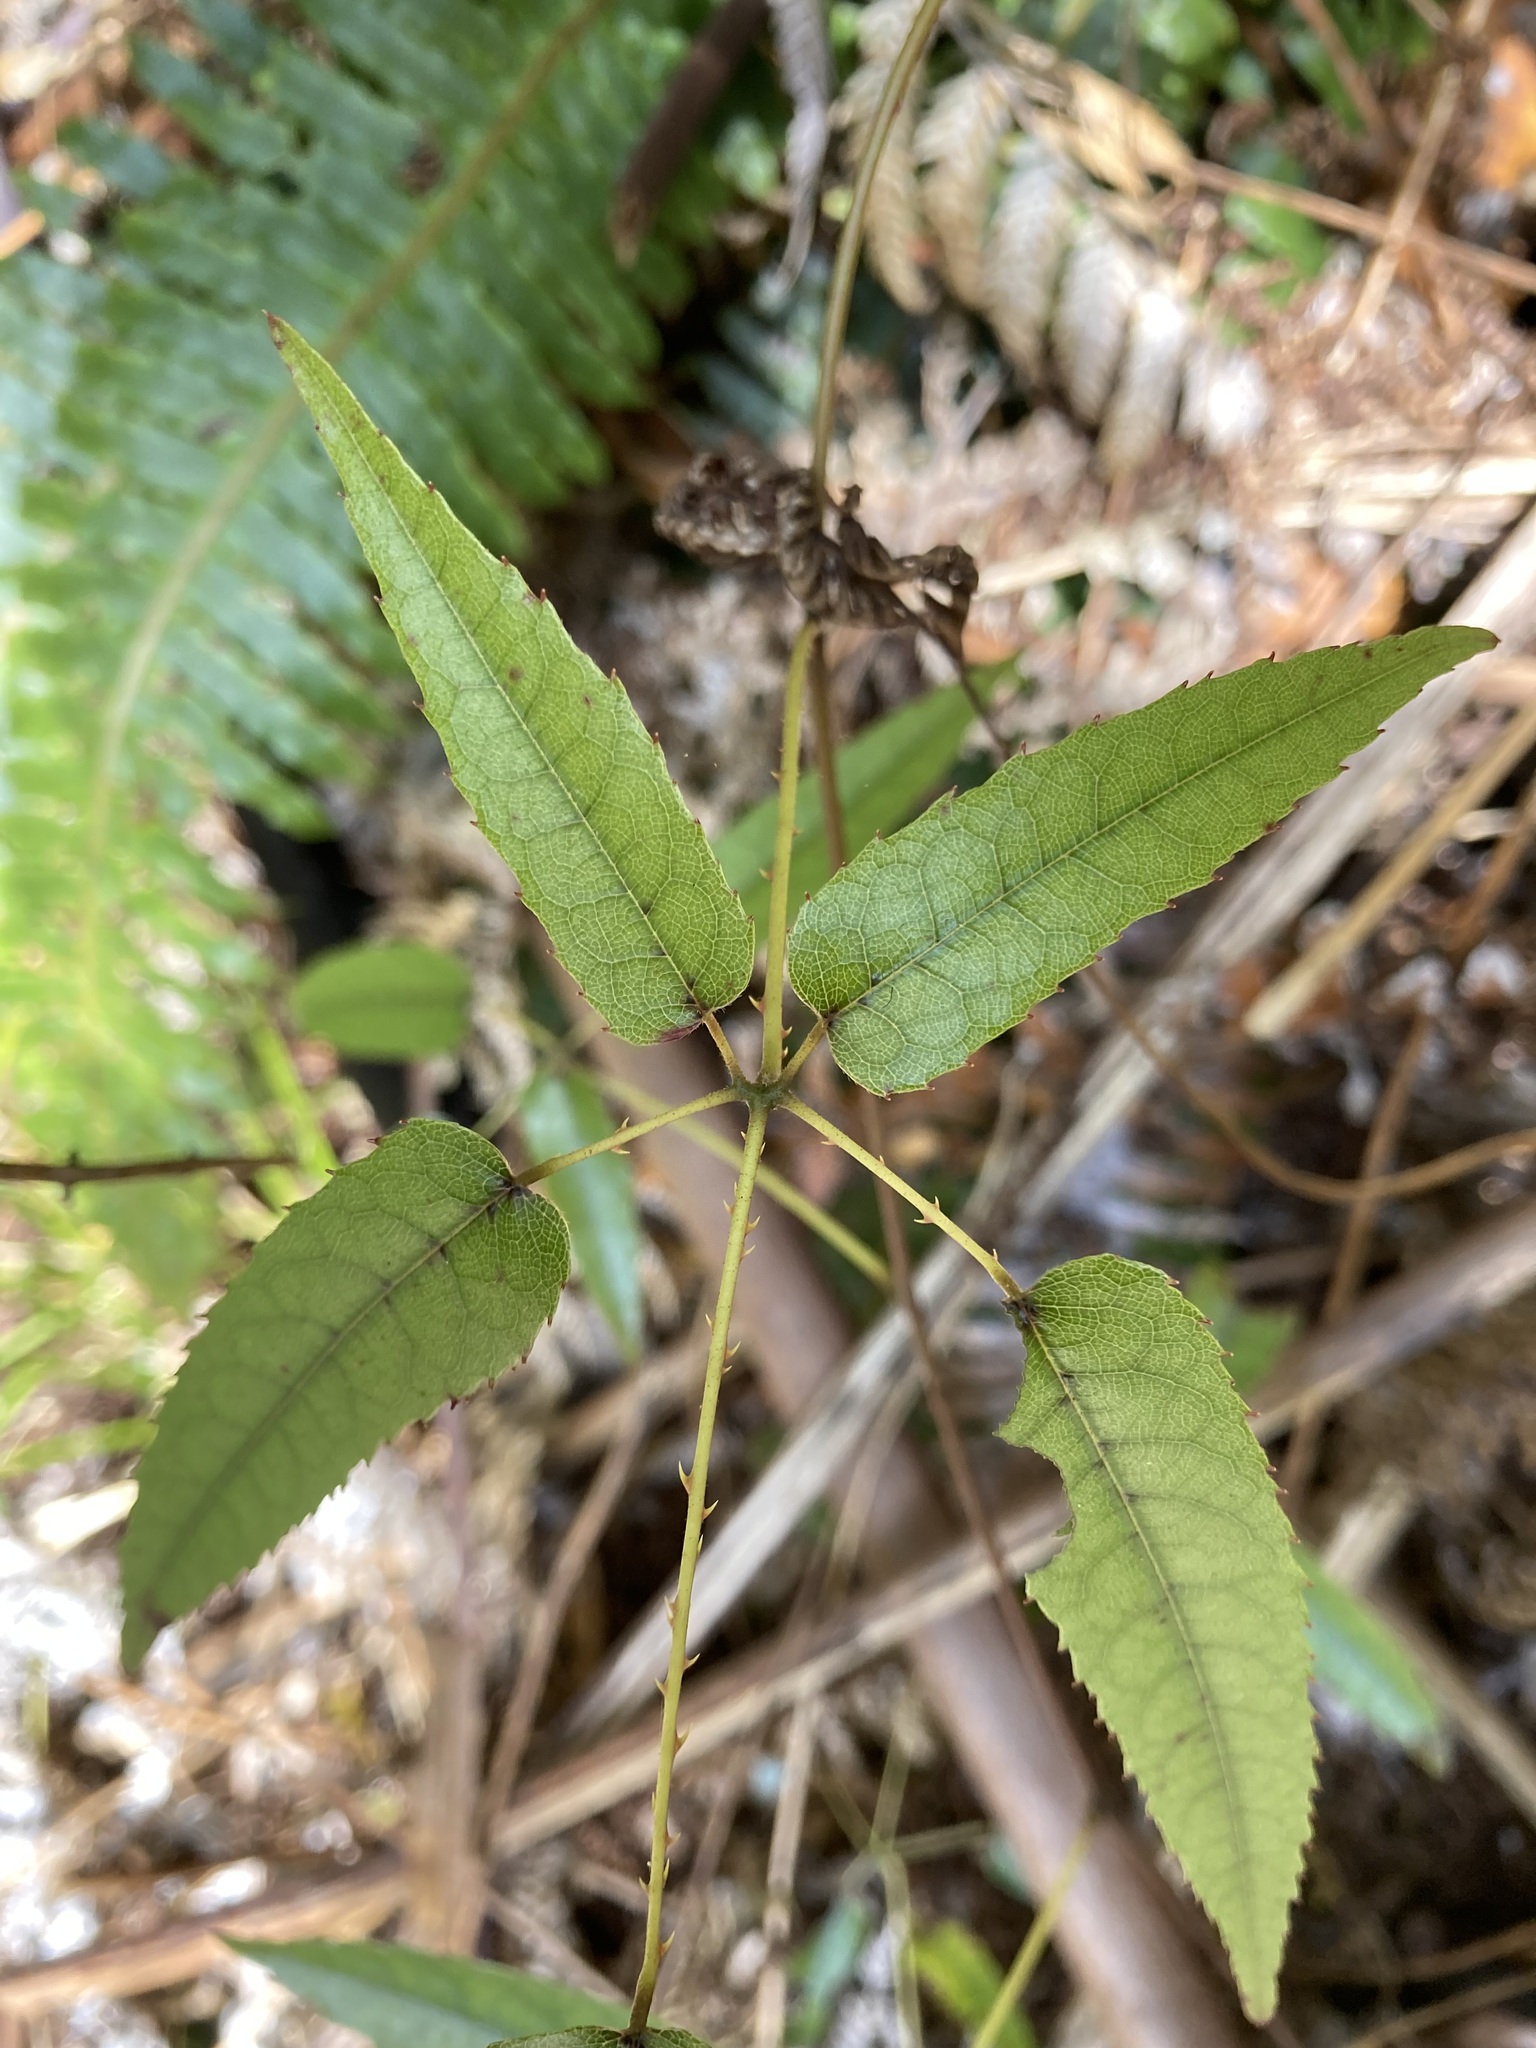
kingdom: Plantae
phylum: Tracheophyta
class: Magnoliopsida
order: Rosales
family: Rosaceae
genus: Rubus
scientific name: Rubus cissoides
